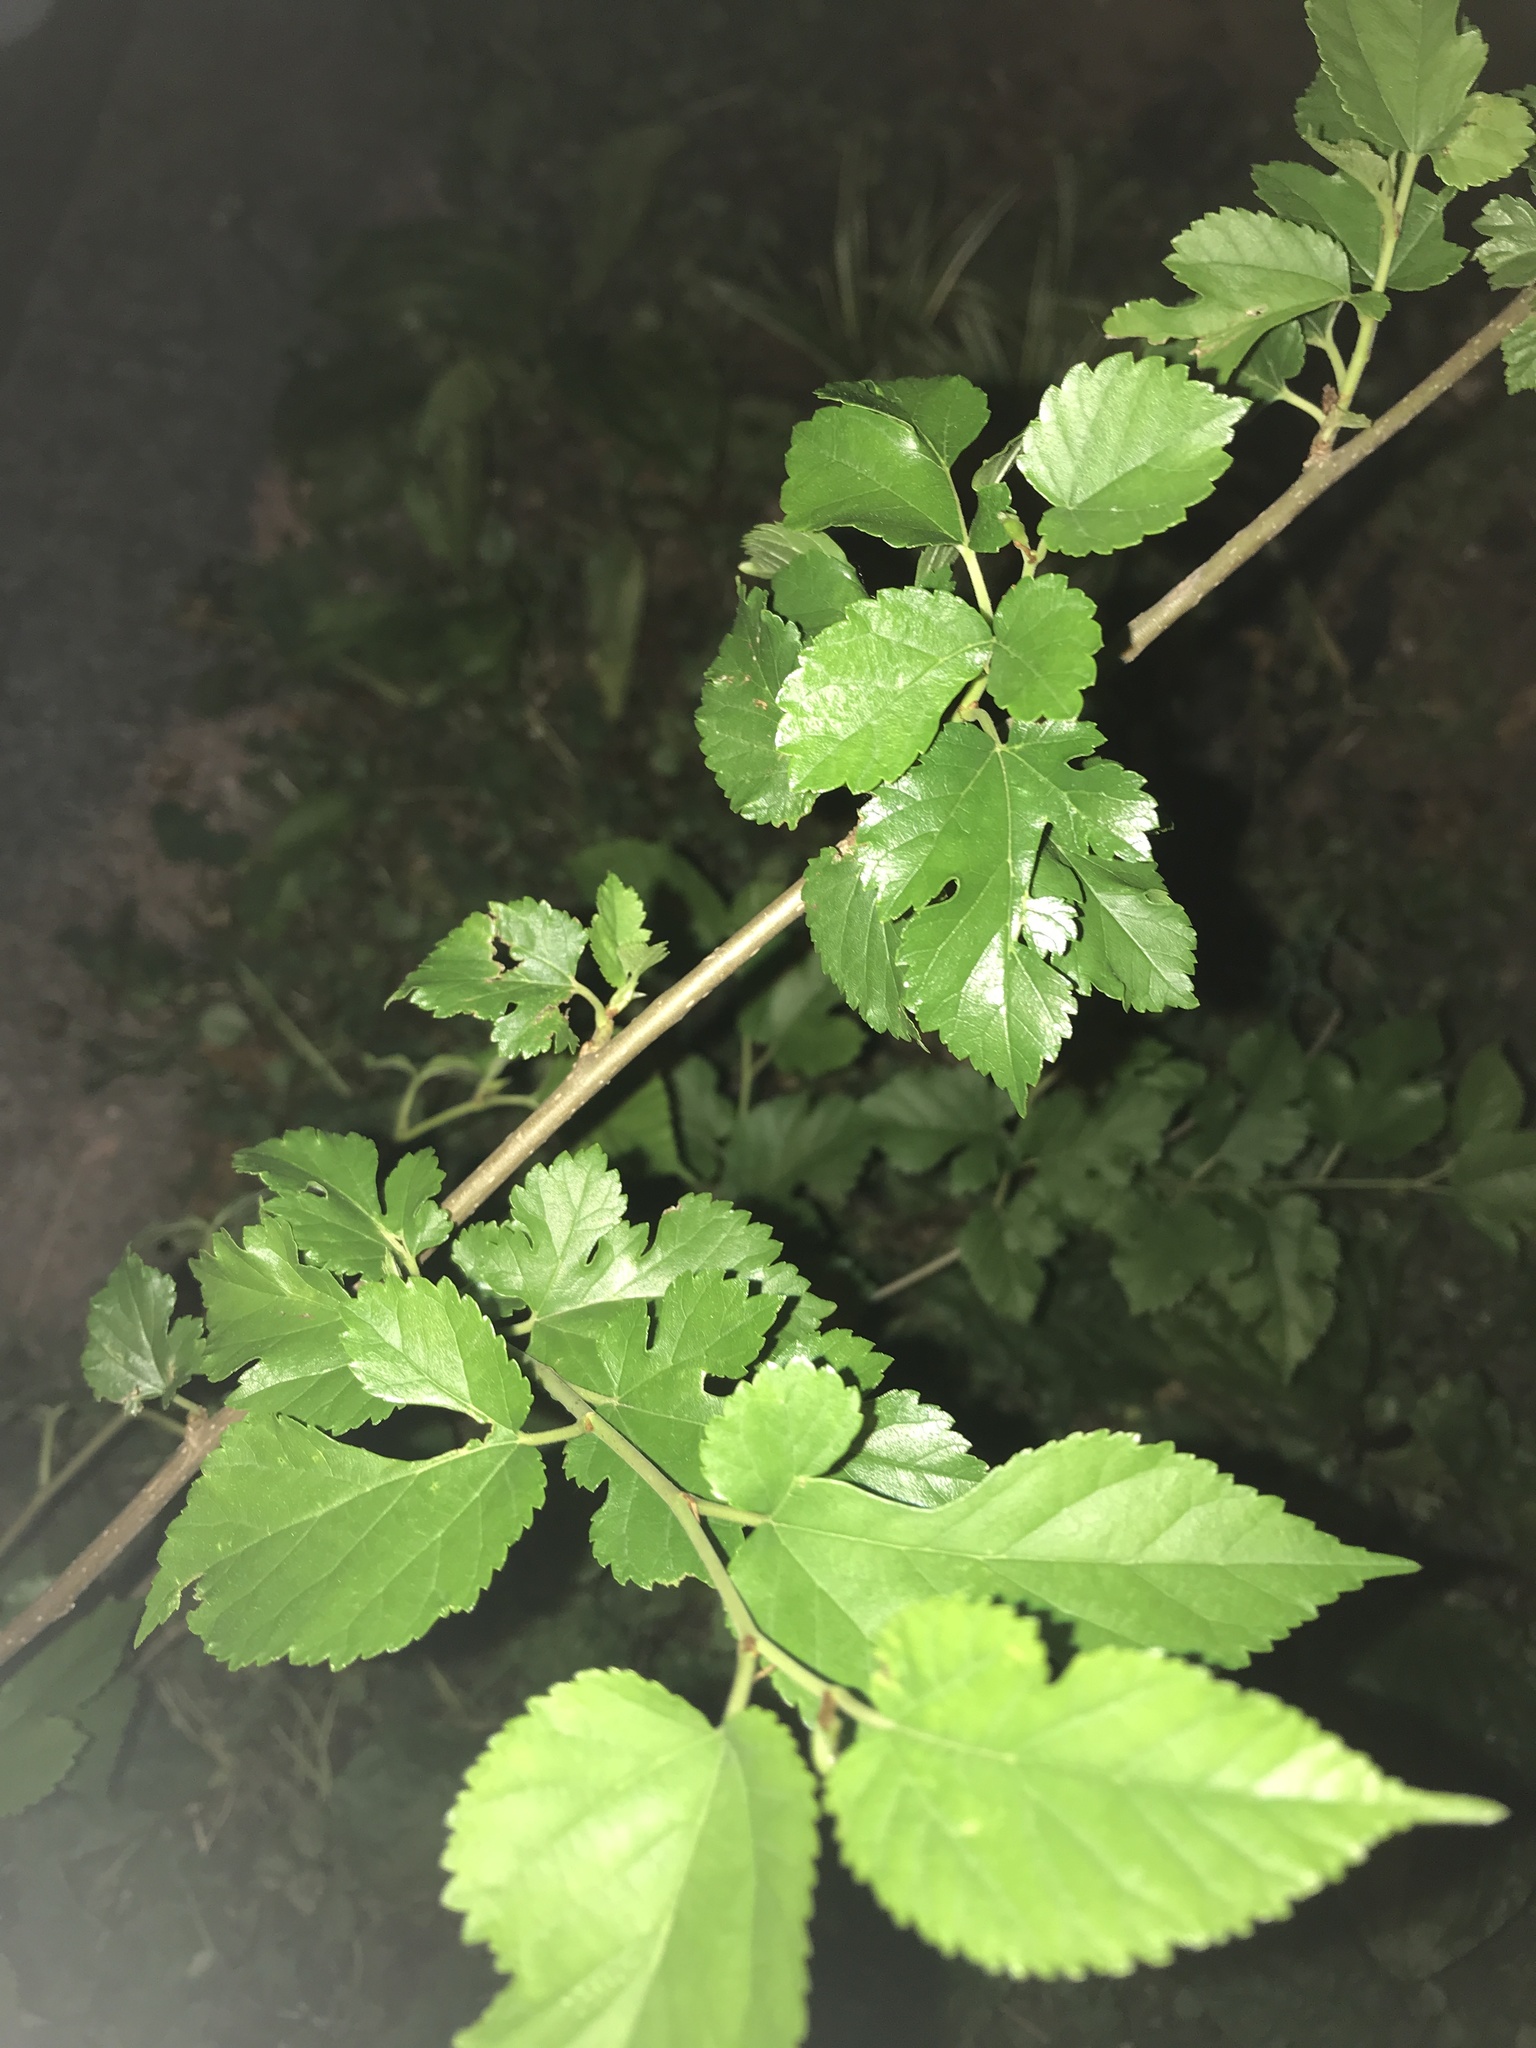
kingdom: Plantae
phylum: Tracheophyta
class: Magnoliopsida
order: Rosales
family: Moraceae
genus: Morus
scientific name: Morus alba
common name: White mulberry
